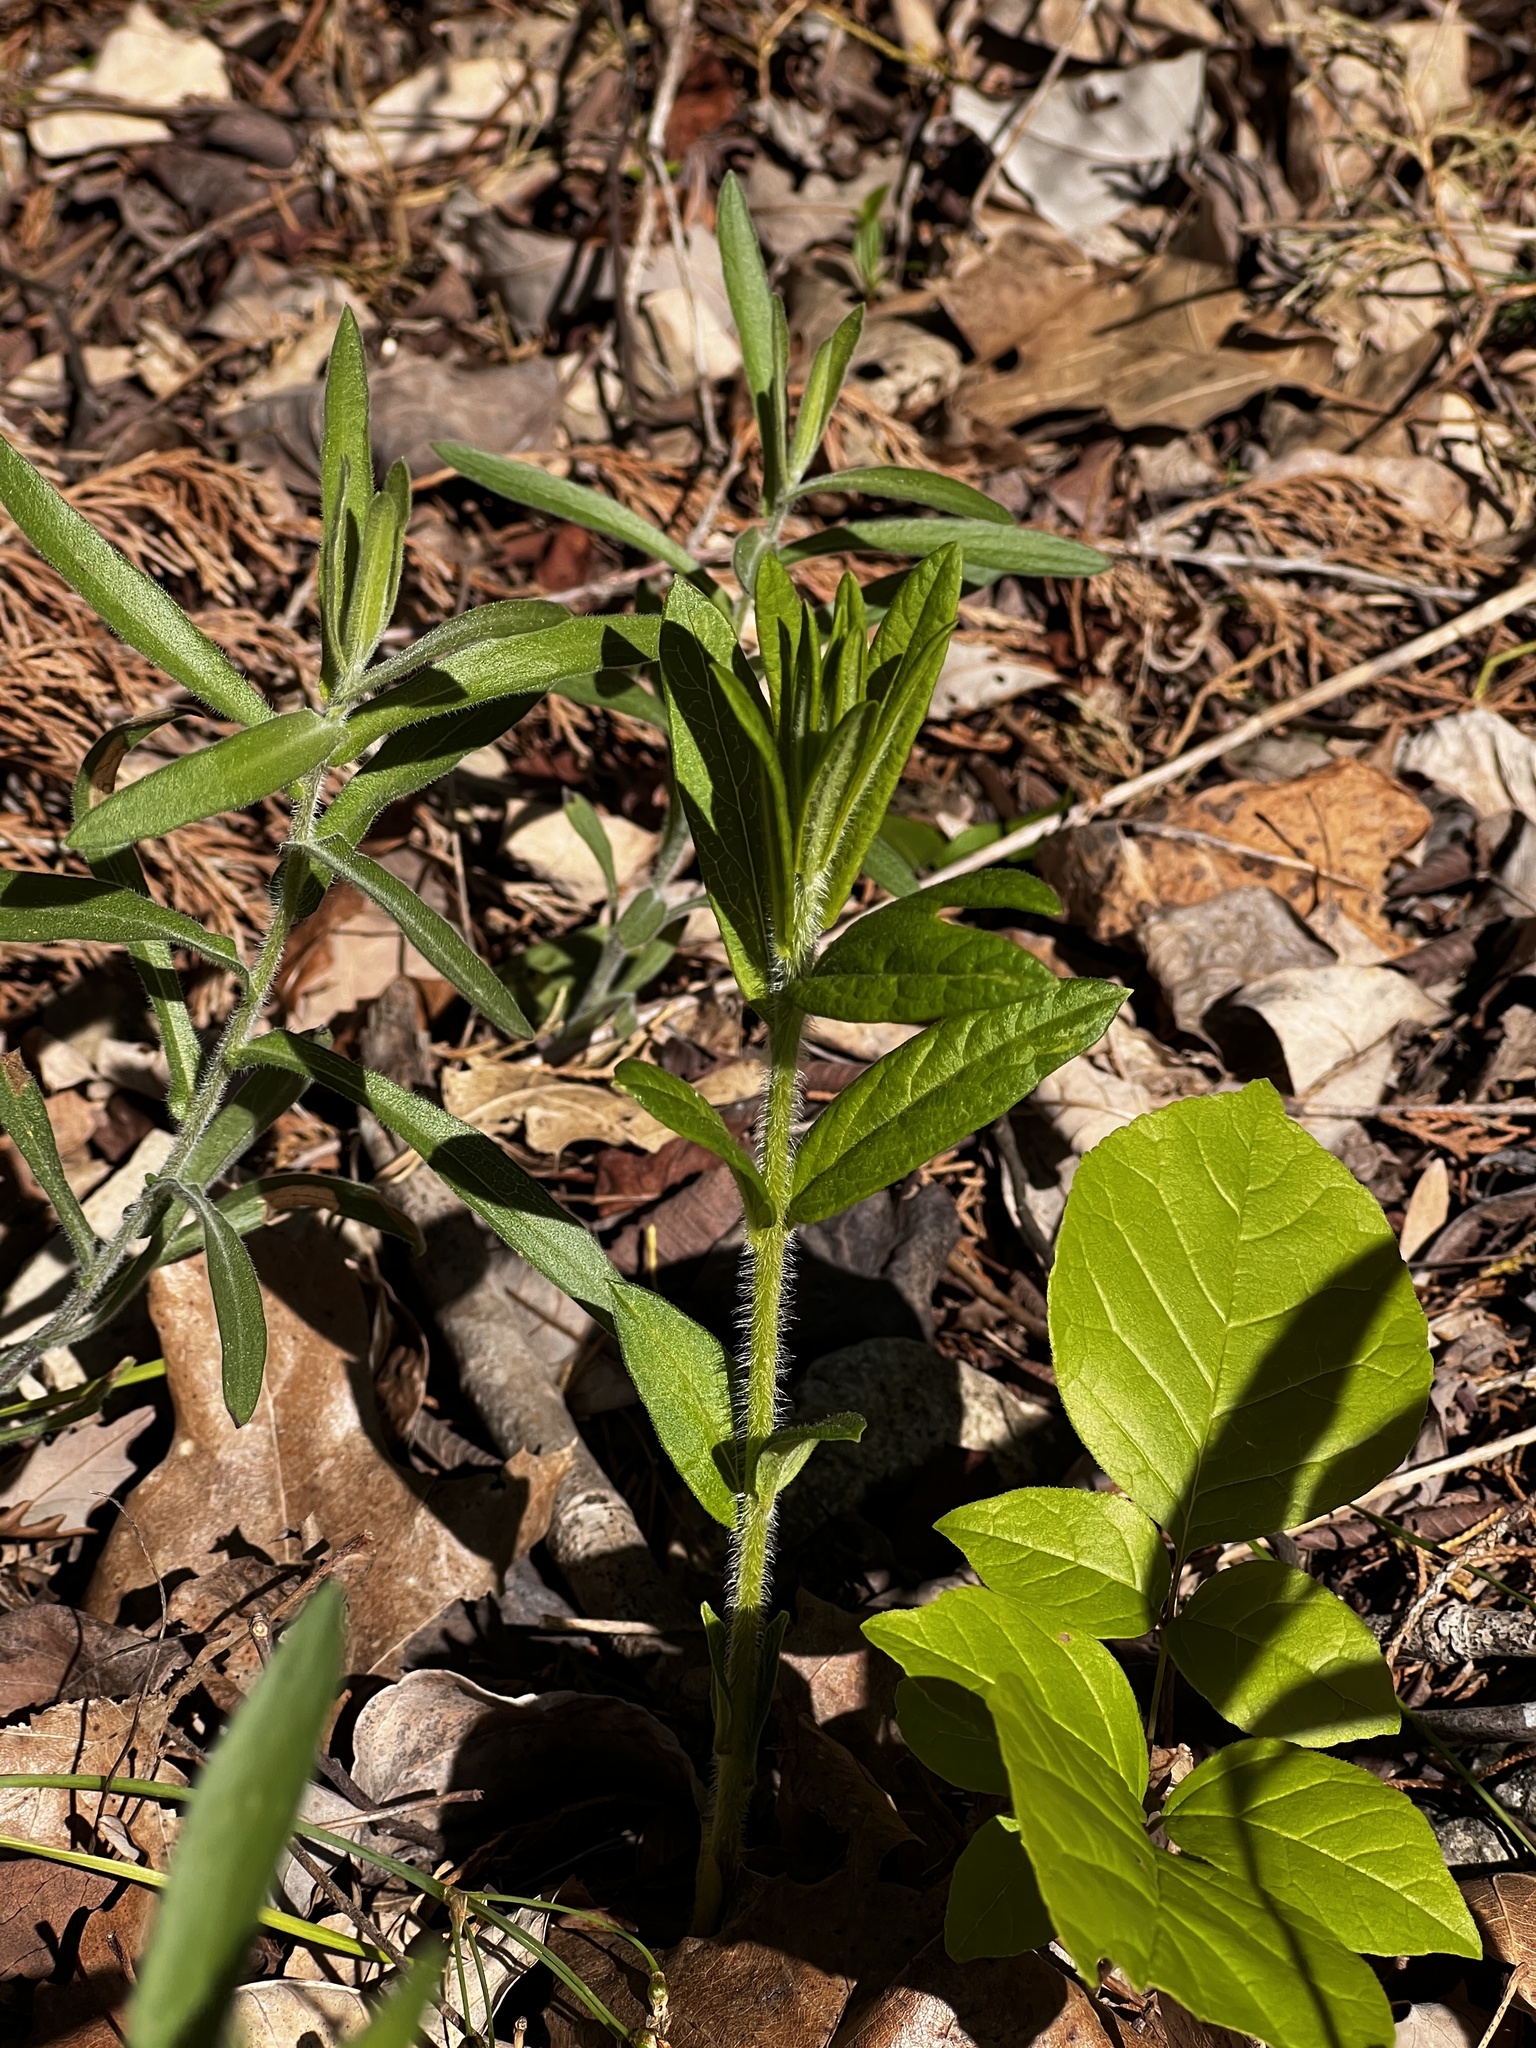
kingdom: Plantae
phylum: Tracheophyta
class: Magnoliopsida
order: Gentianales
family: Apocynaceae
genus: Asclepias
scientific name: Asclepias tuberosa
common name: Butterfly milkweed
